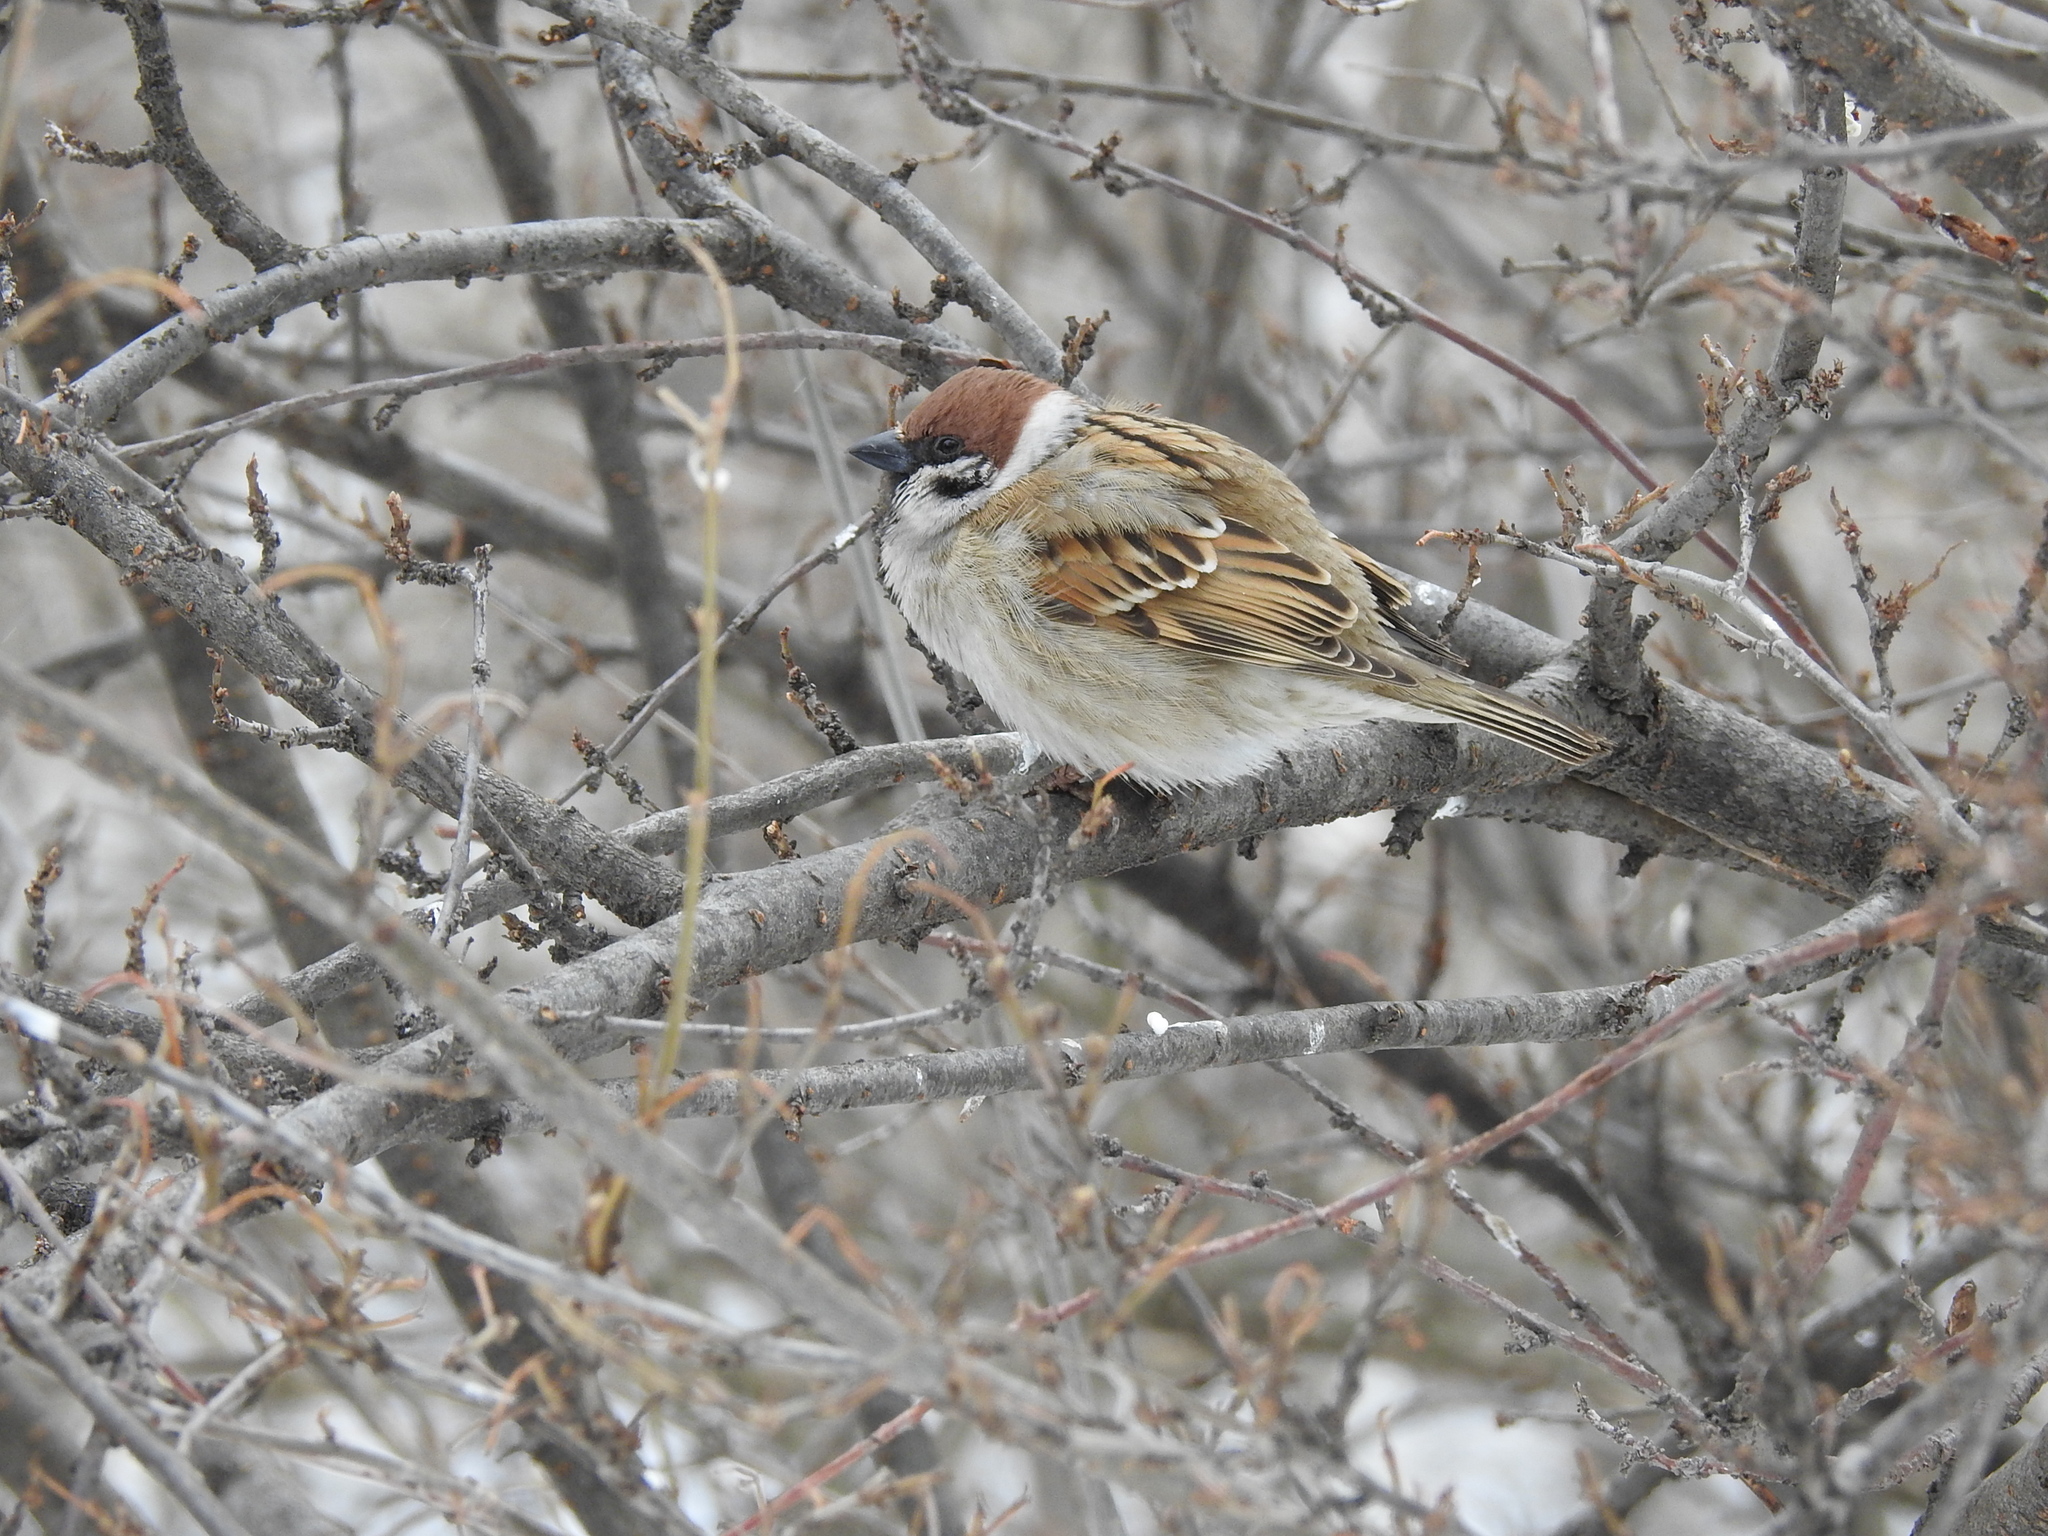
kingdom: Animalia
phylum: Chordata
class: Aves
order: Passeriformes
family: Passeridae
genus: Passer
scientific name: Passer montanus
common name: Eurasian tree sparrow
